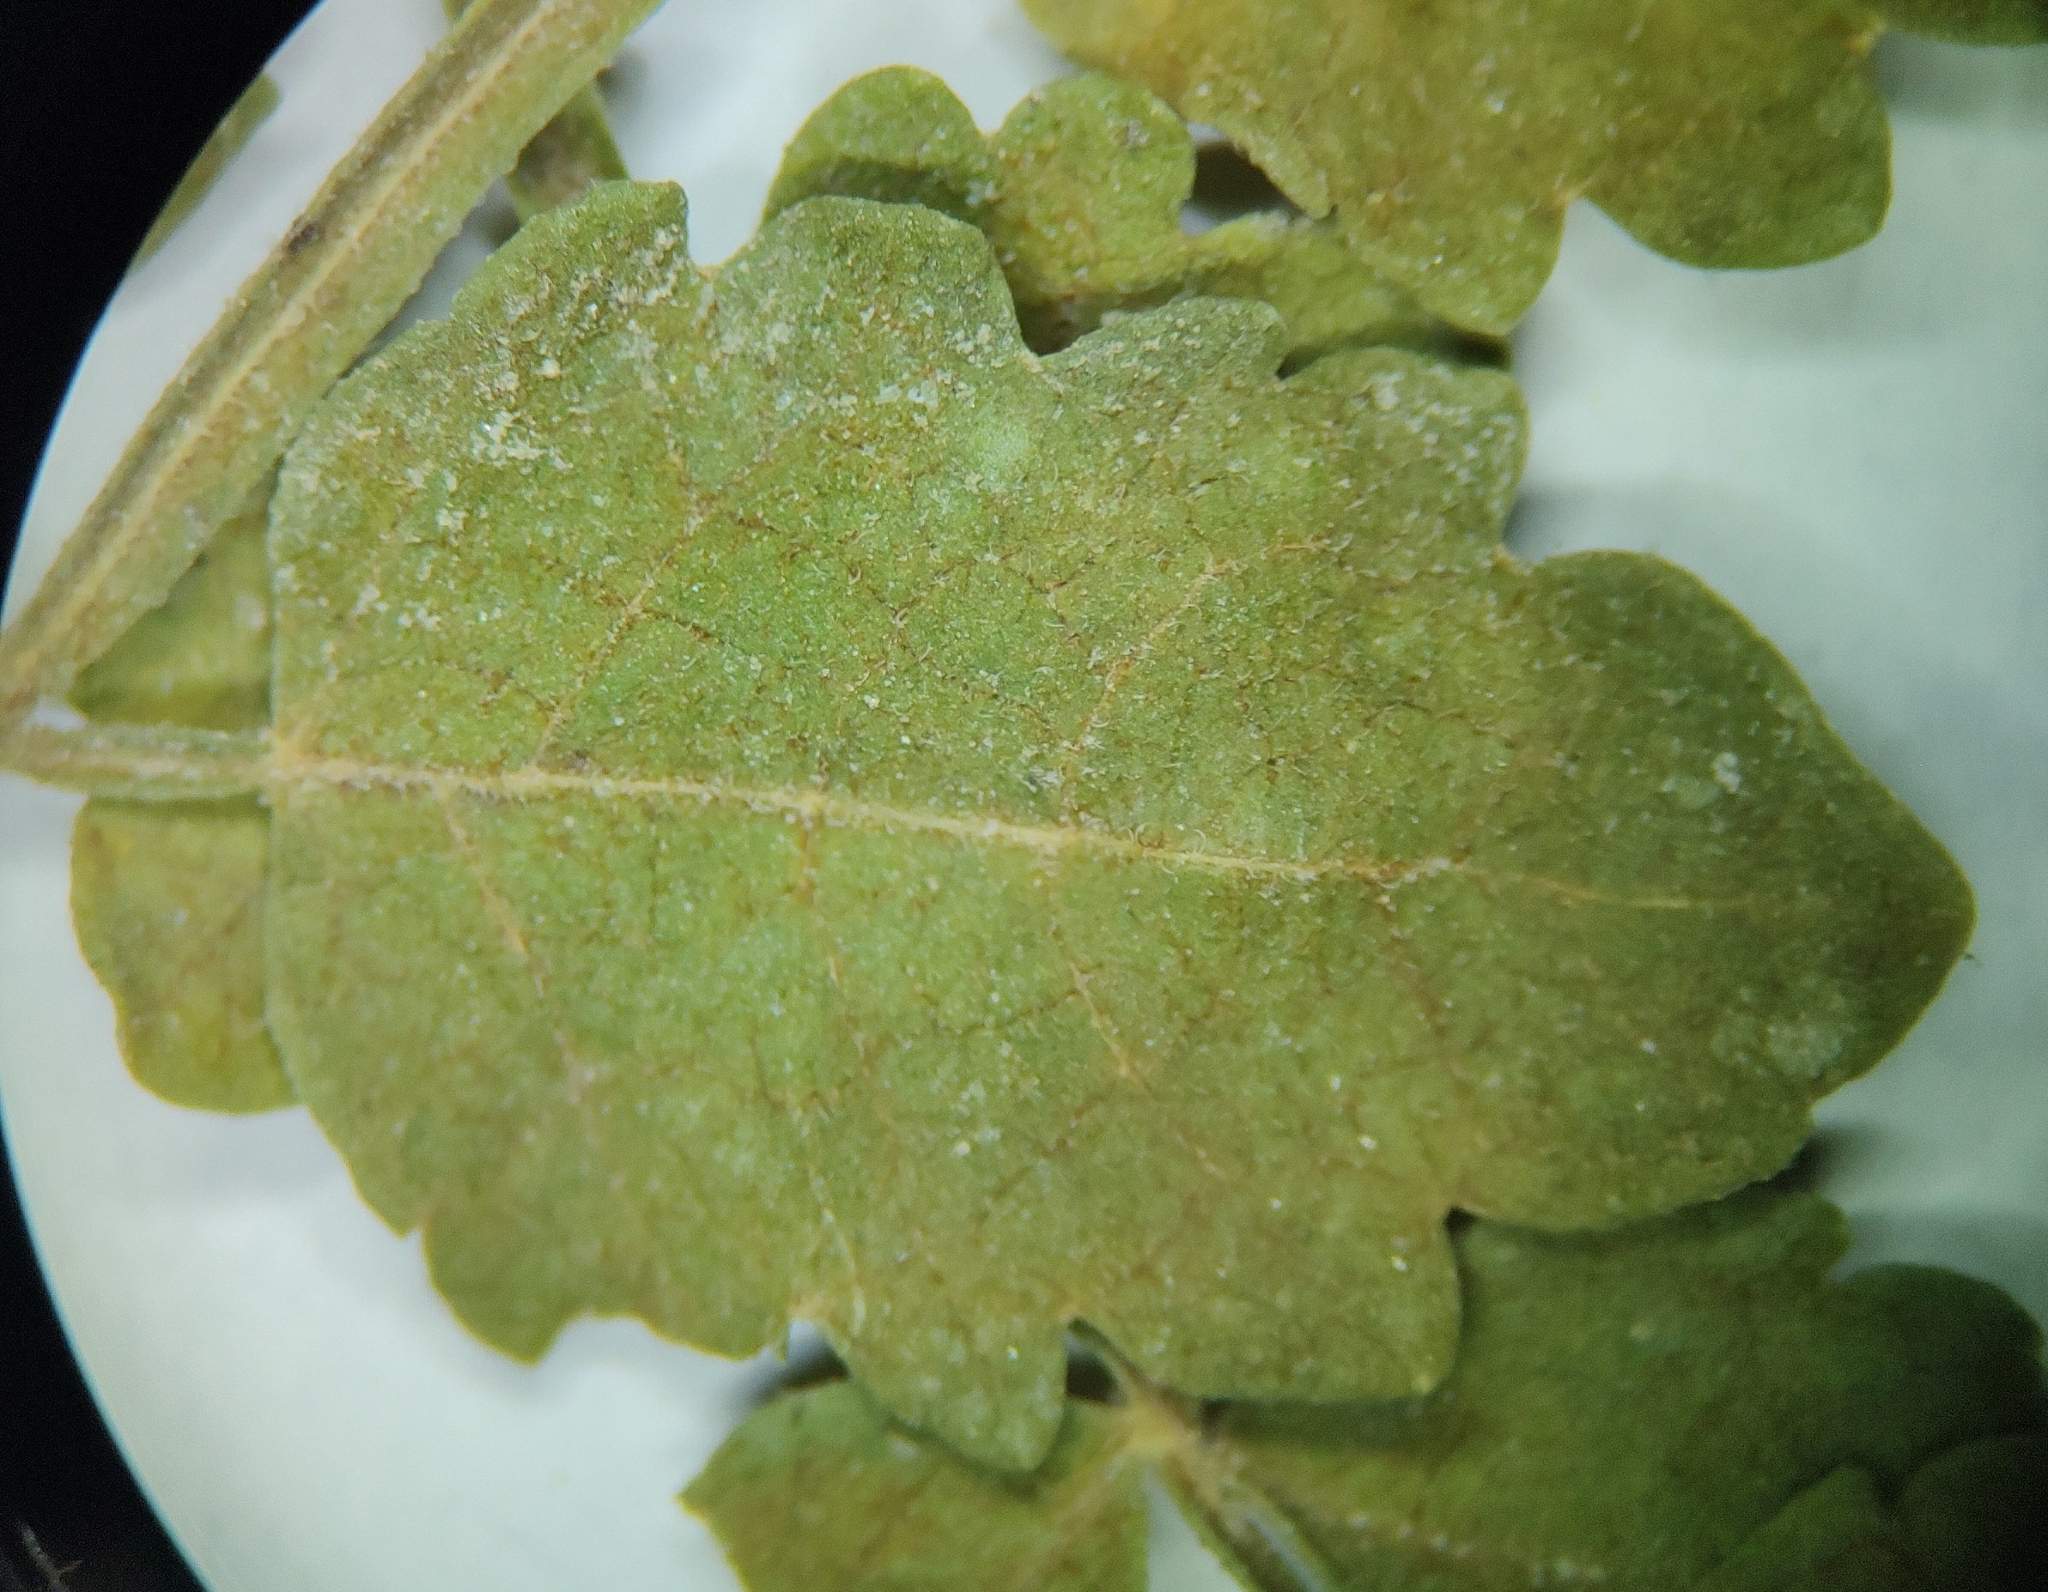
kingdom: Plantae
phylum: Tracheophyta
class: Magnoliopsida
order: Sapindales
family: Burseraceae
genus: Bursera
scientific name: Bursera littoralis
